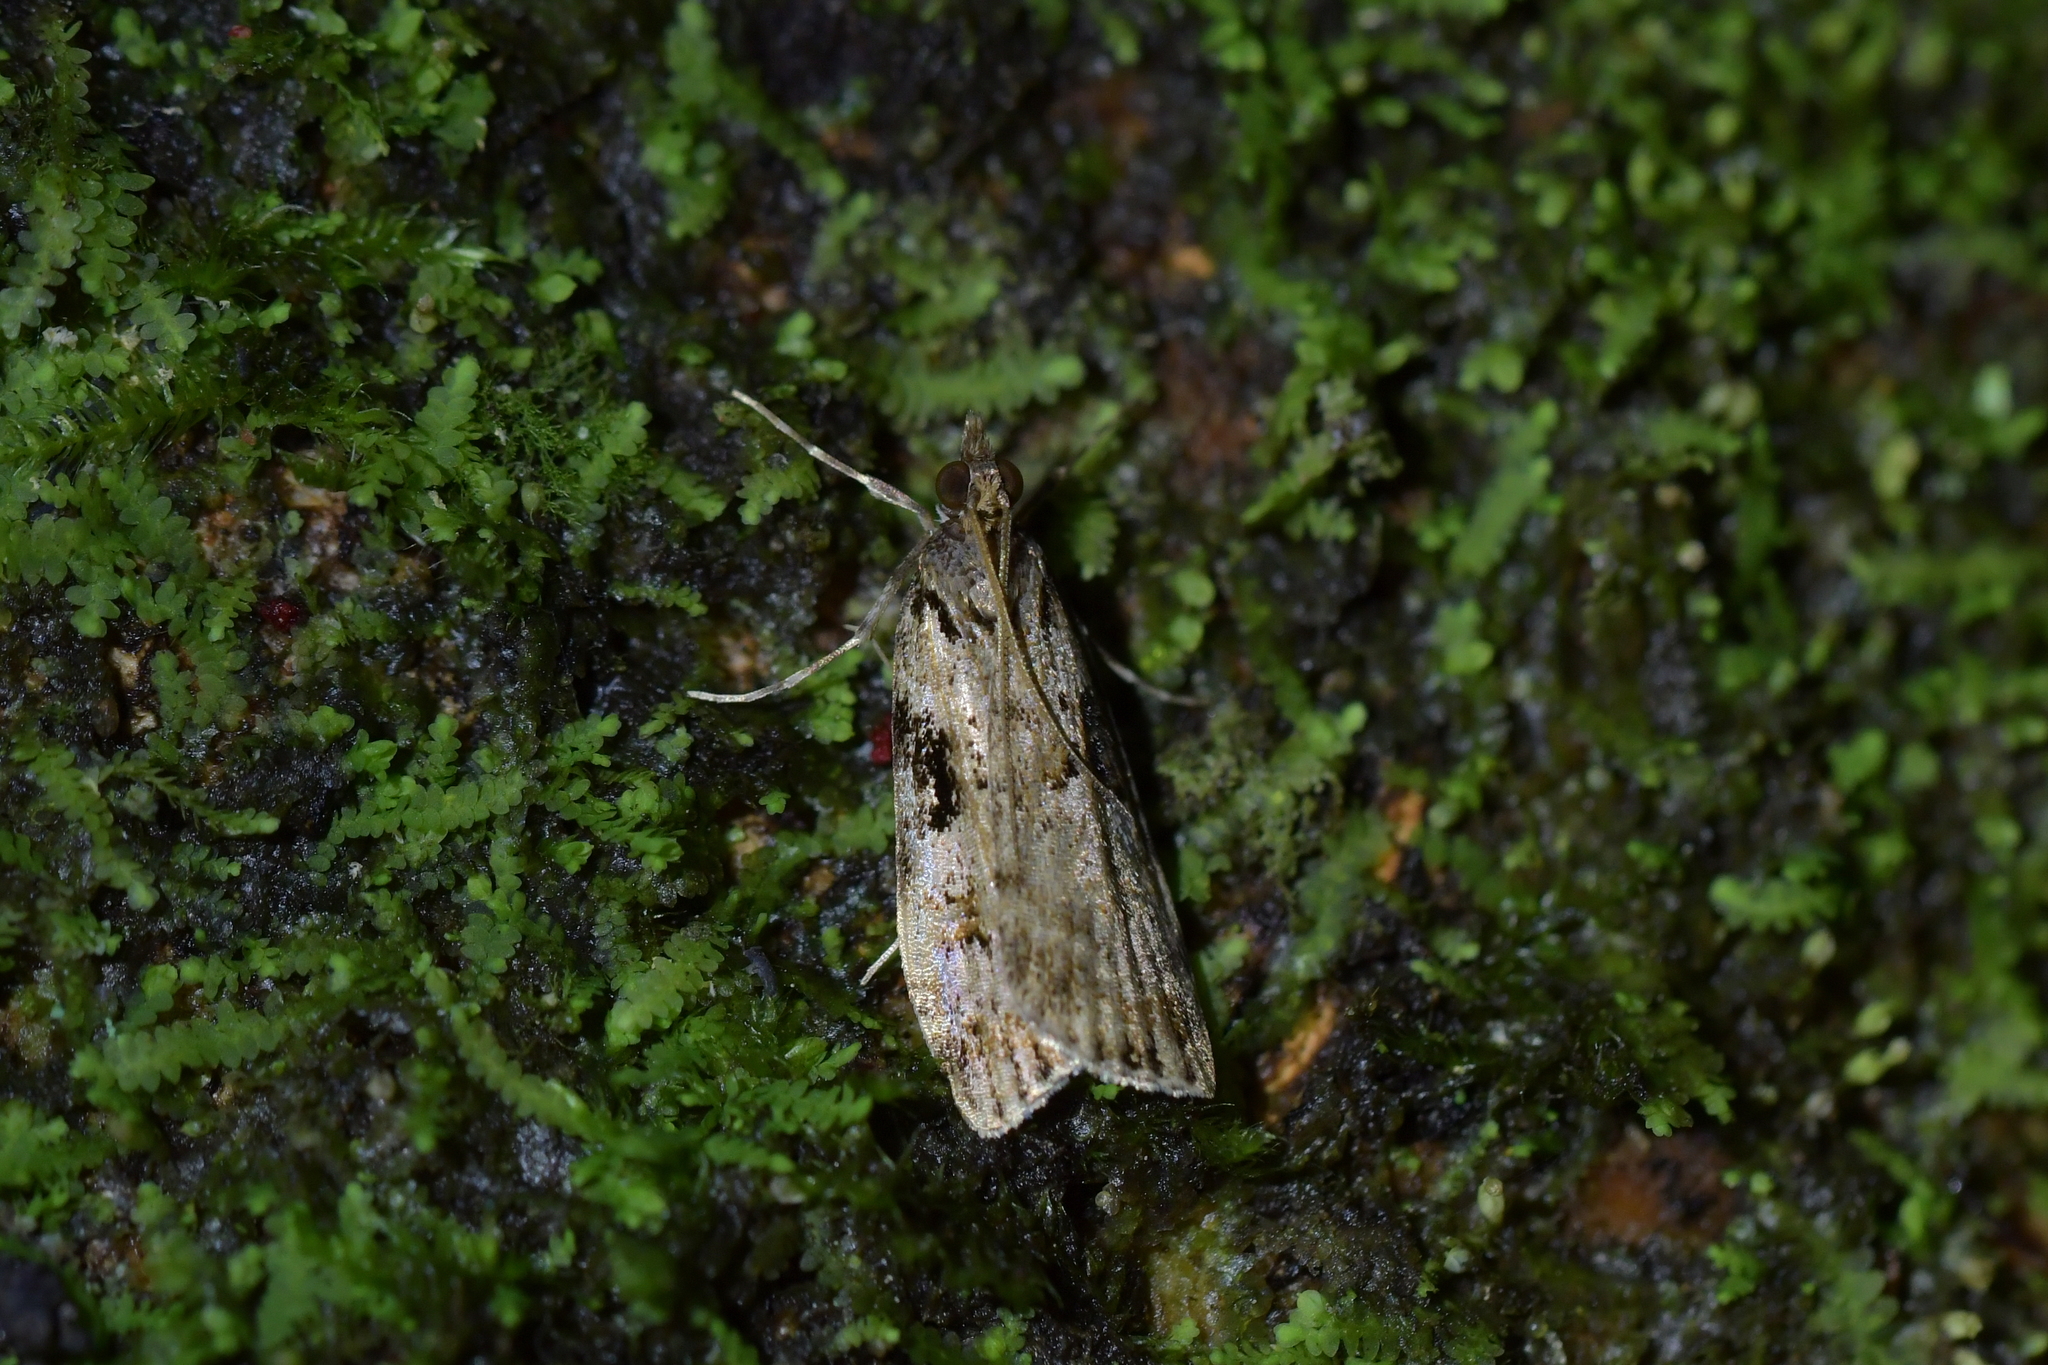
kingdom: Animalia
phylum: Arthropoda
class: Insecta
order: Lepidoptera
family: Crambidae
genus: Scoparia
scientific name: Scoparia acharis
